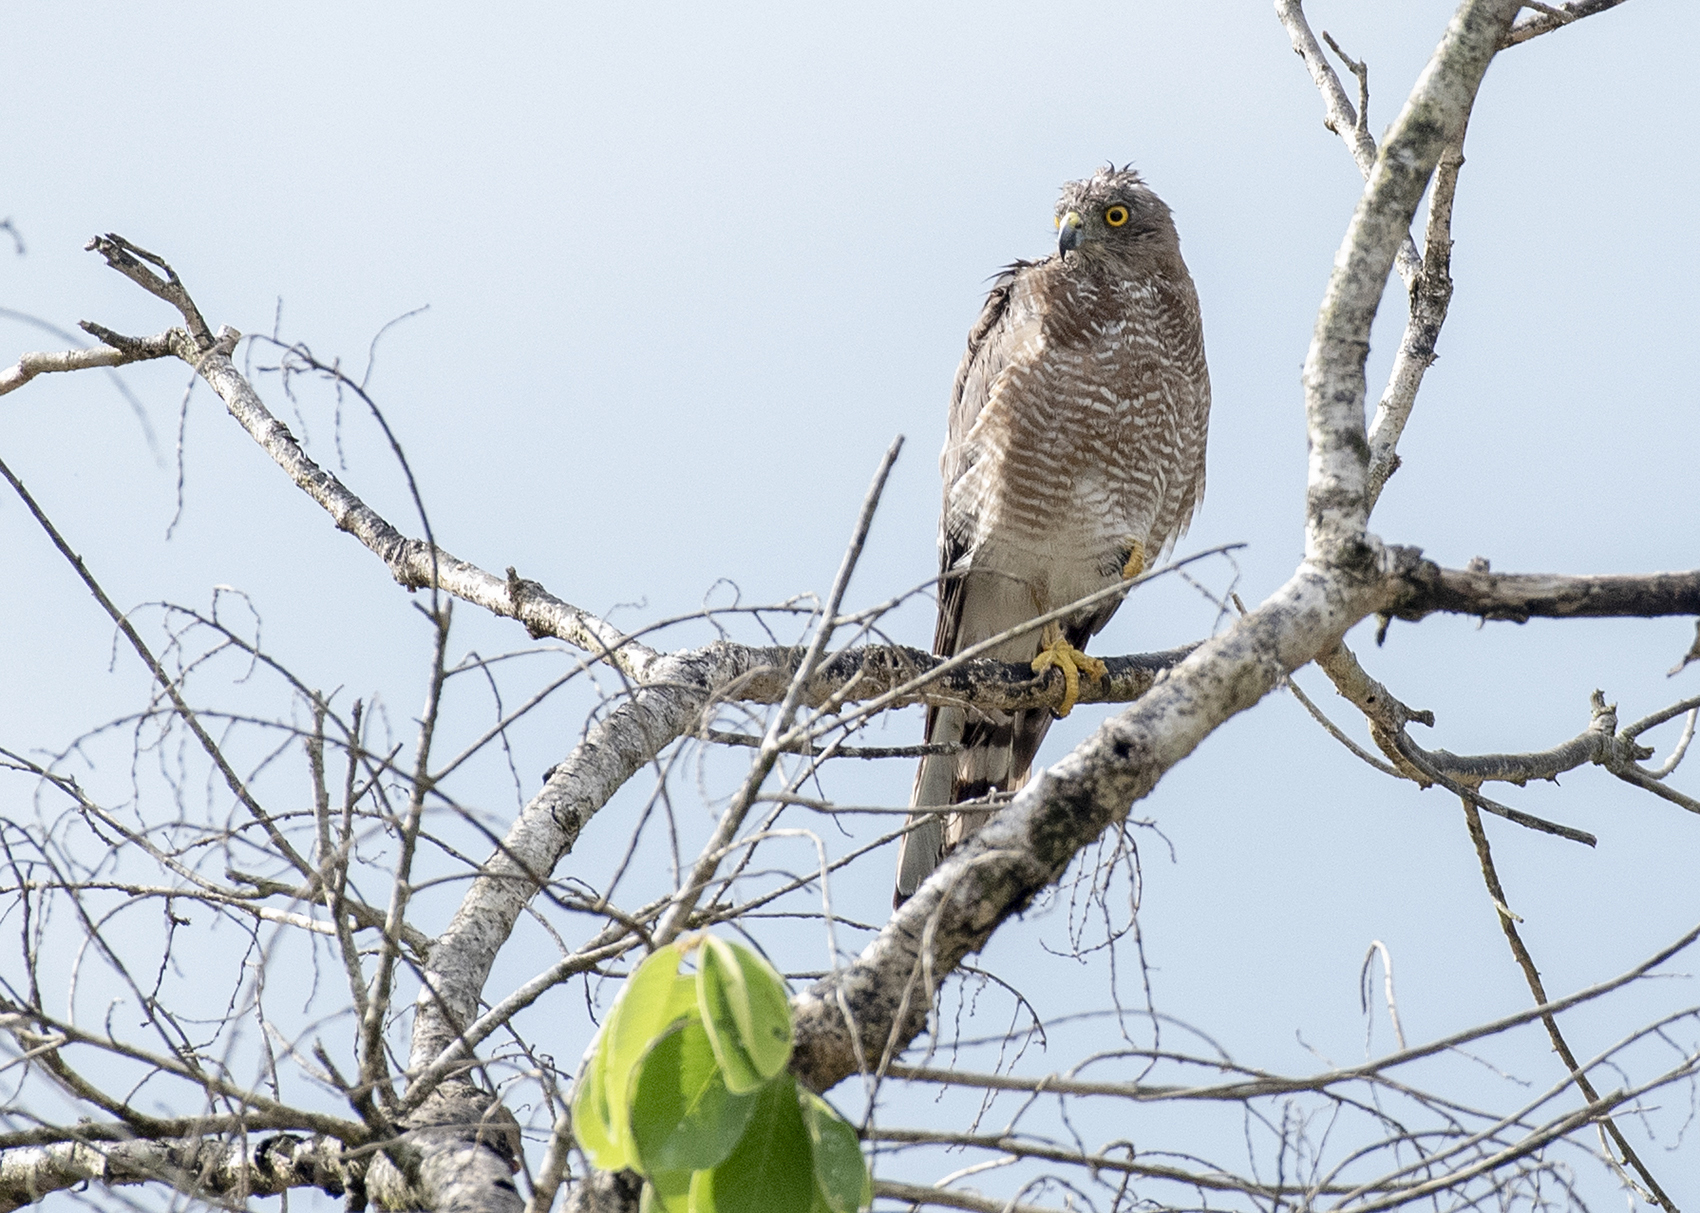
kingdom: Animalia
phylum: Chordata
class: Aves
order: Accipitriformes
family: Accipitridae
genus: Accipiter
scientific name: Accipiter badius
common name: Shikra
